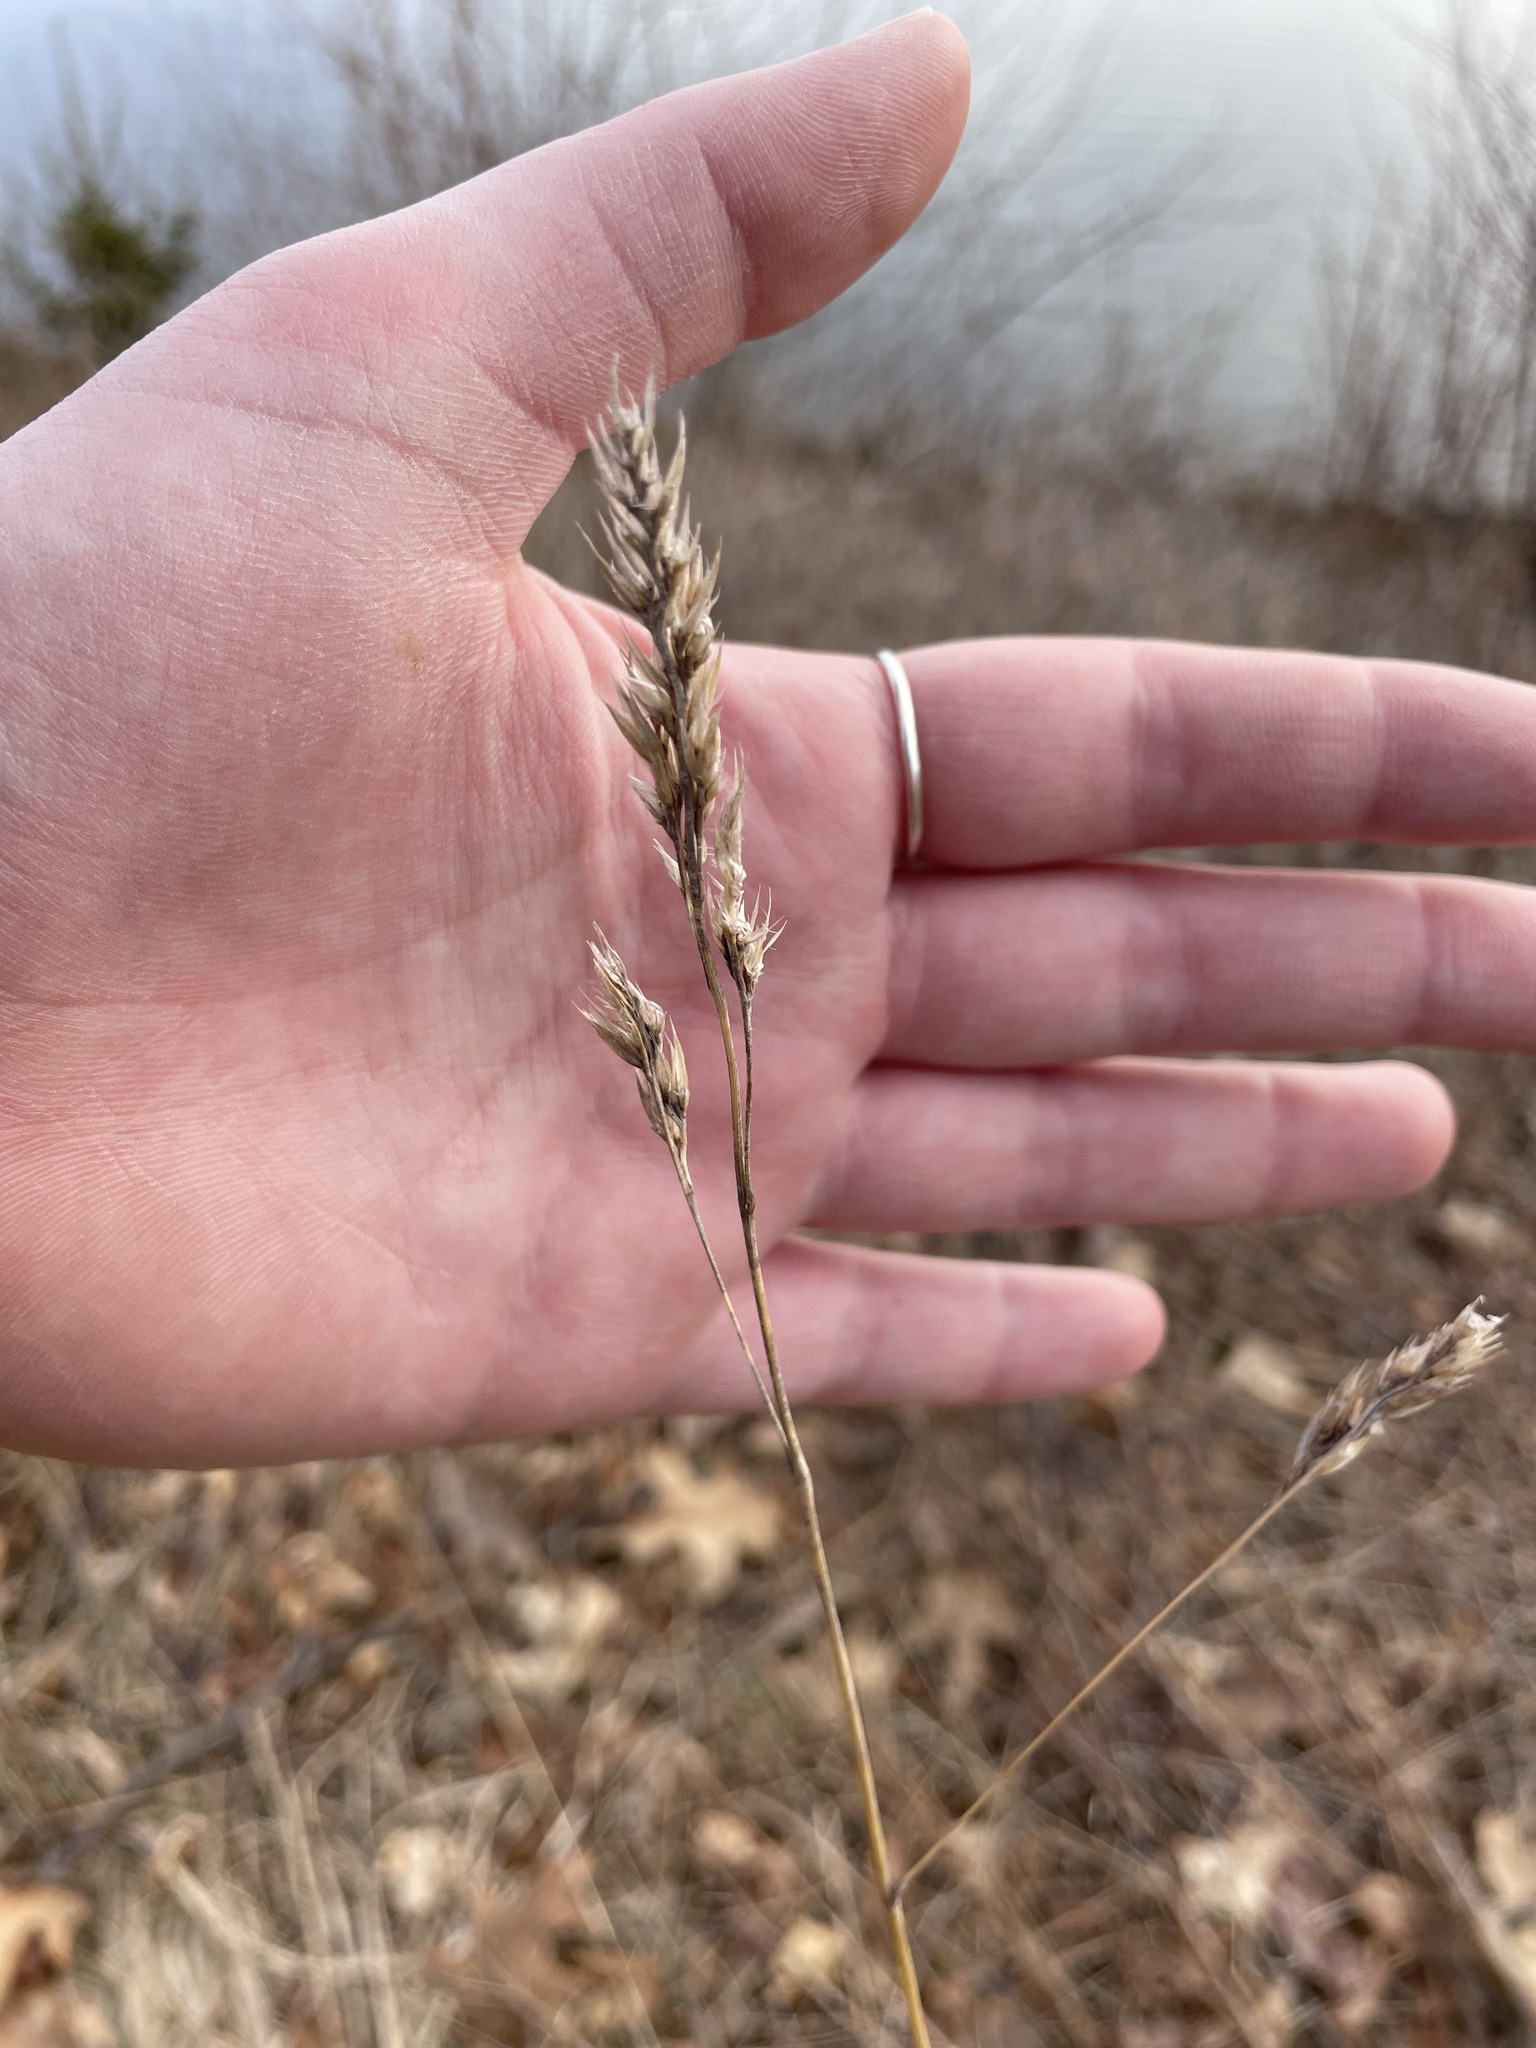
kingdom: Plantae
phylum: Tracheophyta
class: Liliopsida
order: Poales
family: Poaceae
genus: Dactylis
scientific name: Dactylis glomerata
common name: Orchardgrass
